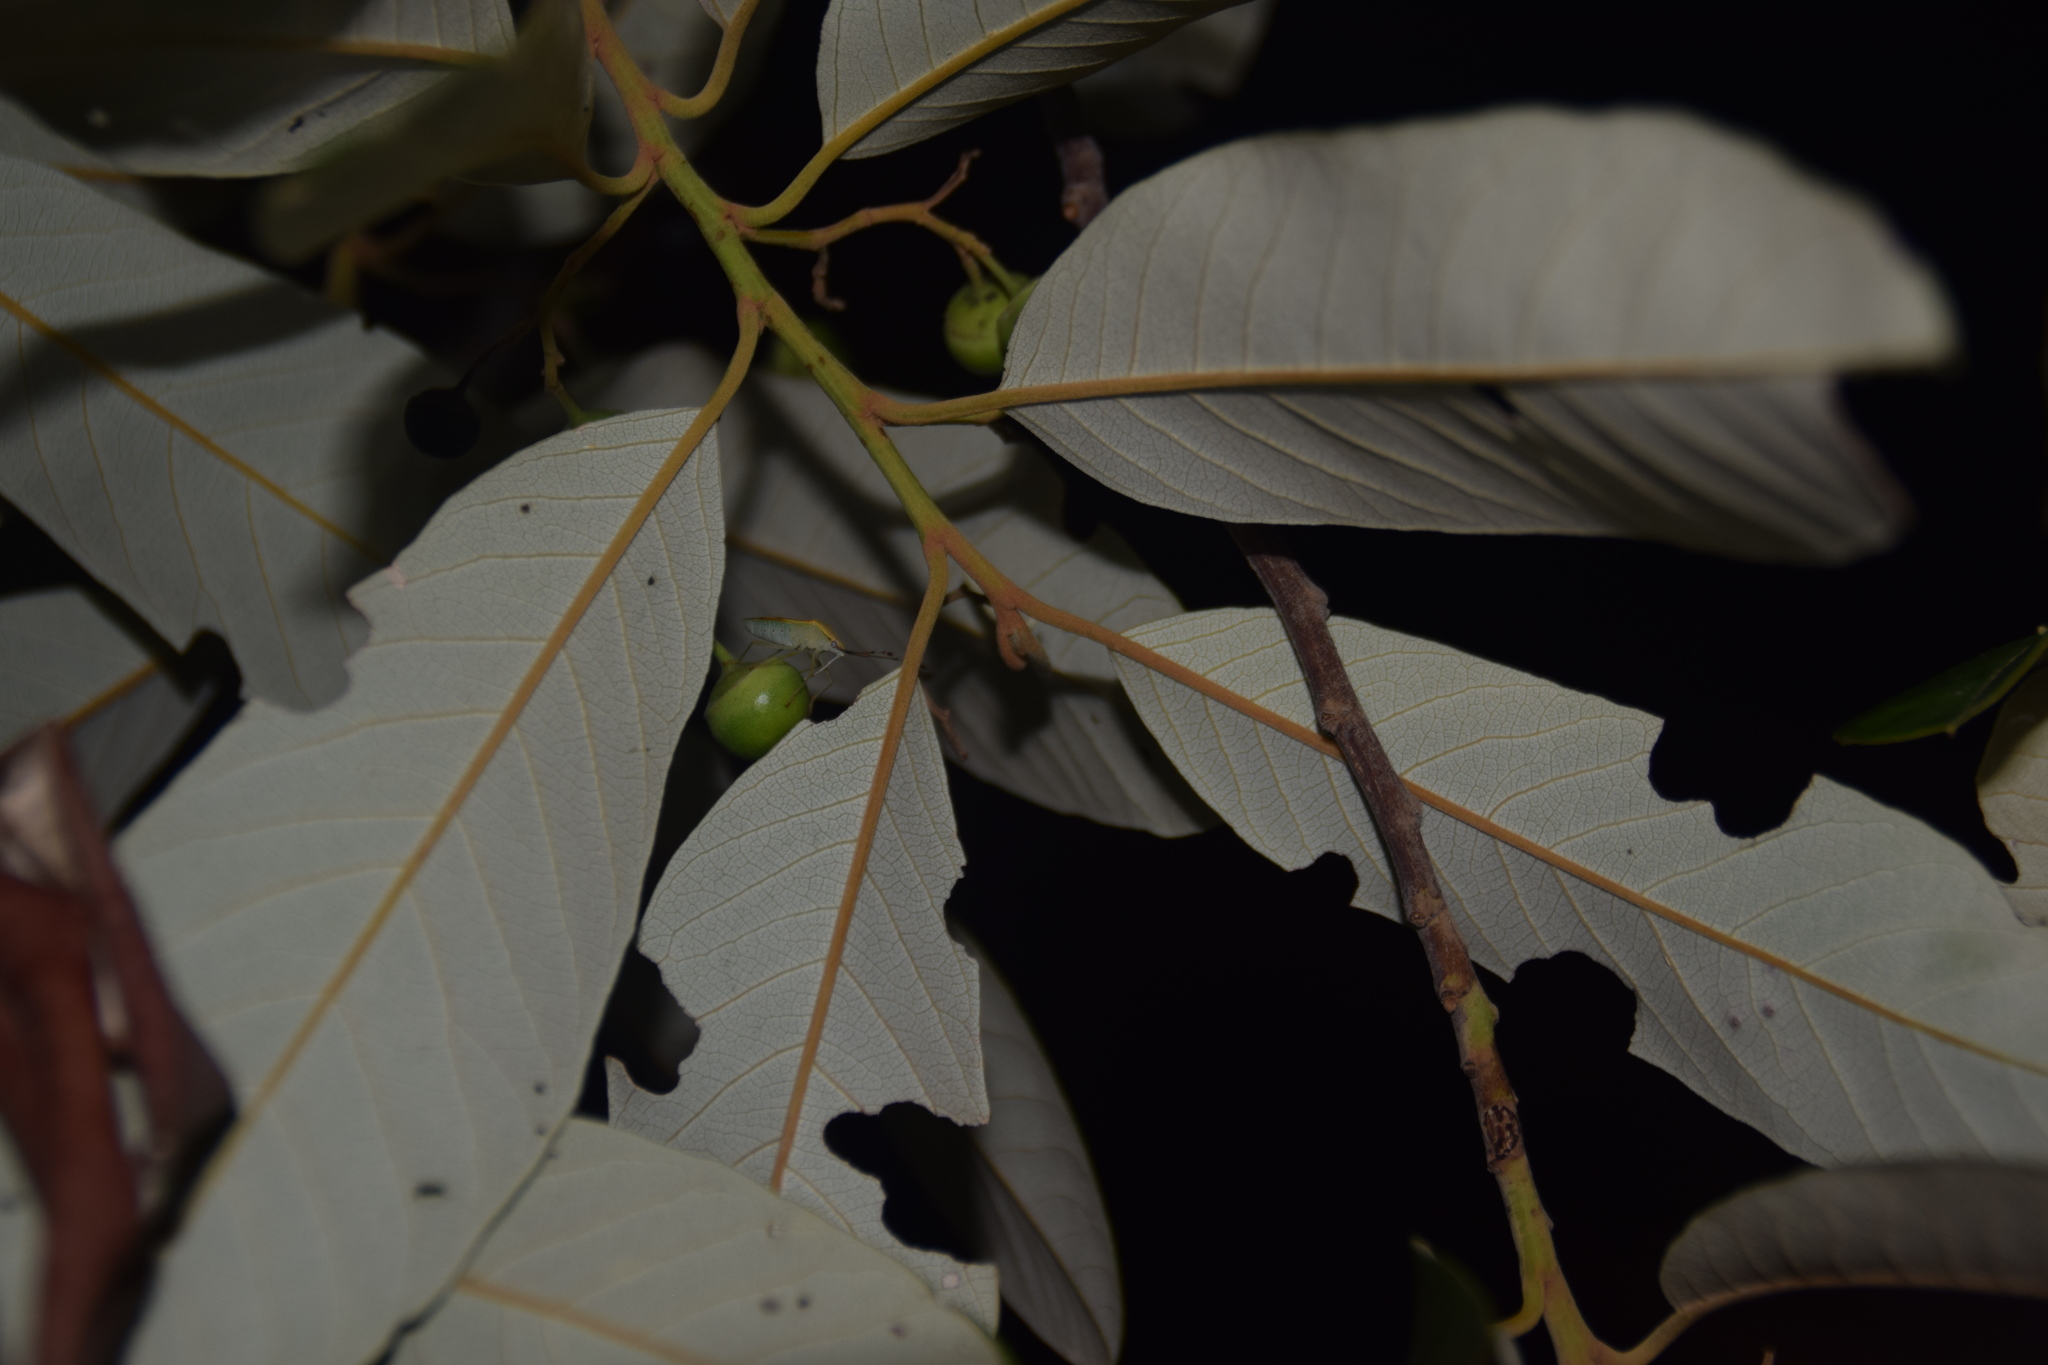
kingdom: Plantae
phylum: Tracheophyta
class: Magnoliopsida
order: Rosales
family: Rhamnaceae
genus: Alphitonia
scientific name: Alphitonia excelsa
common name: Red ash
